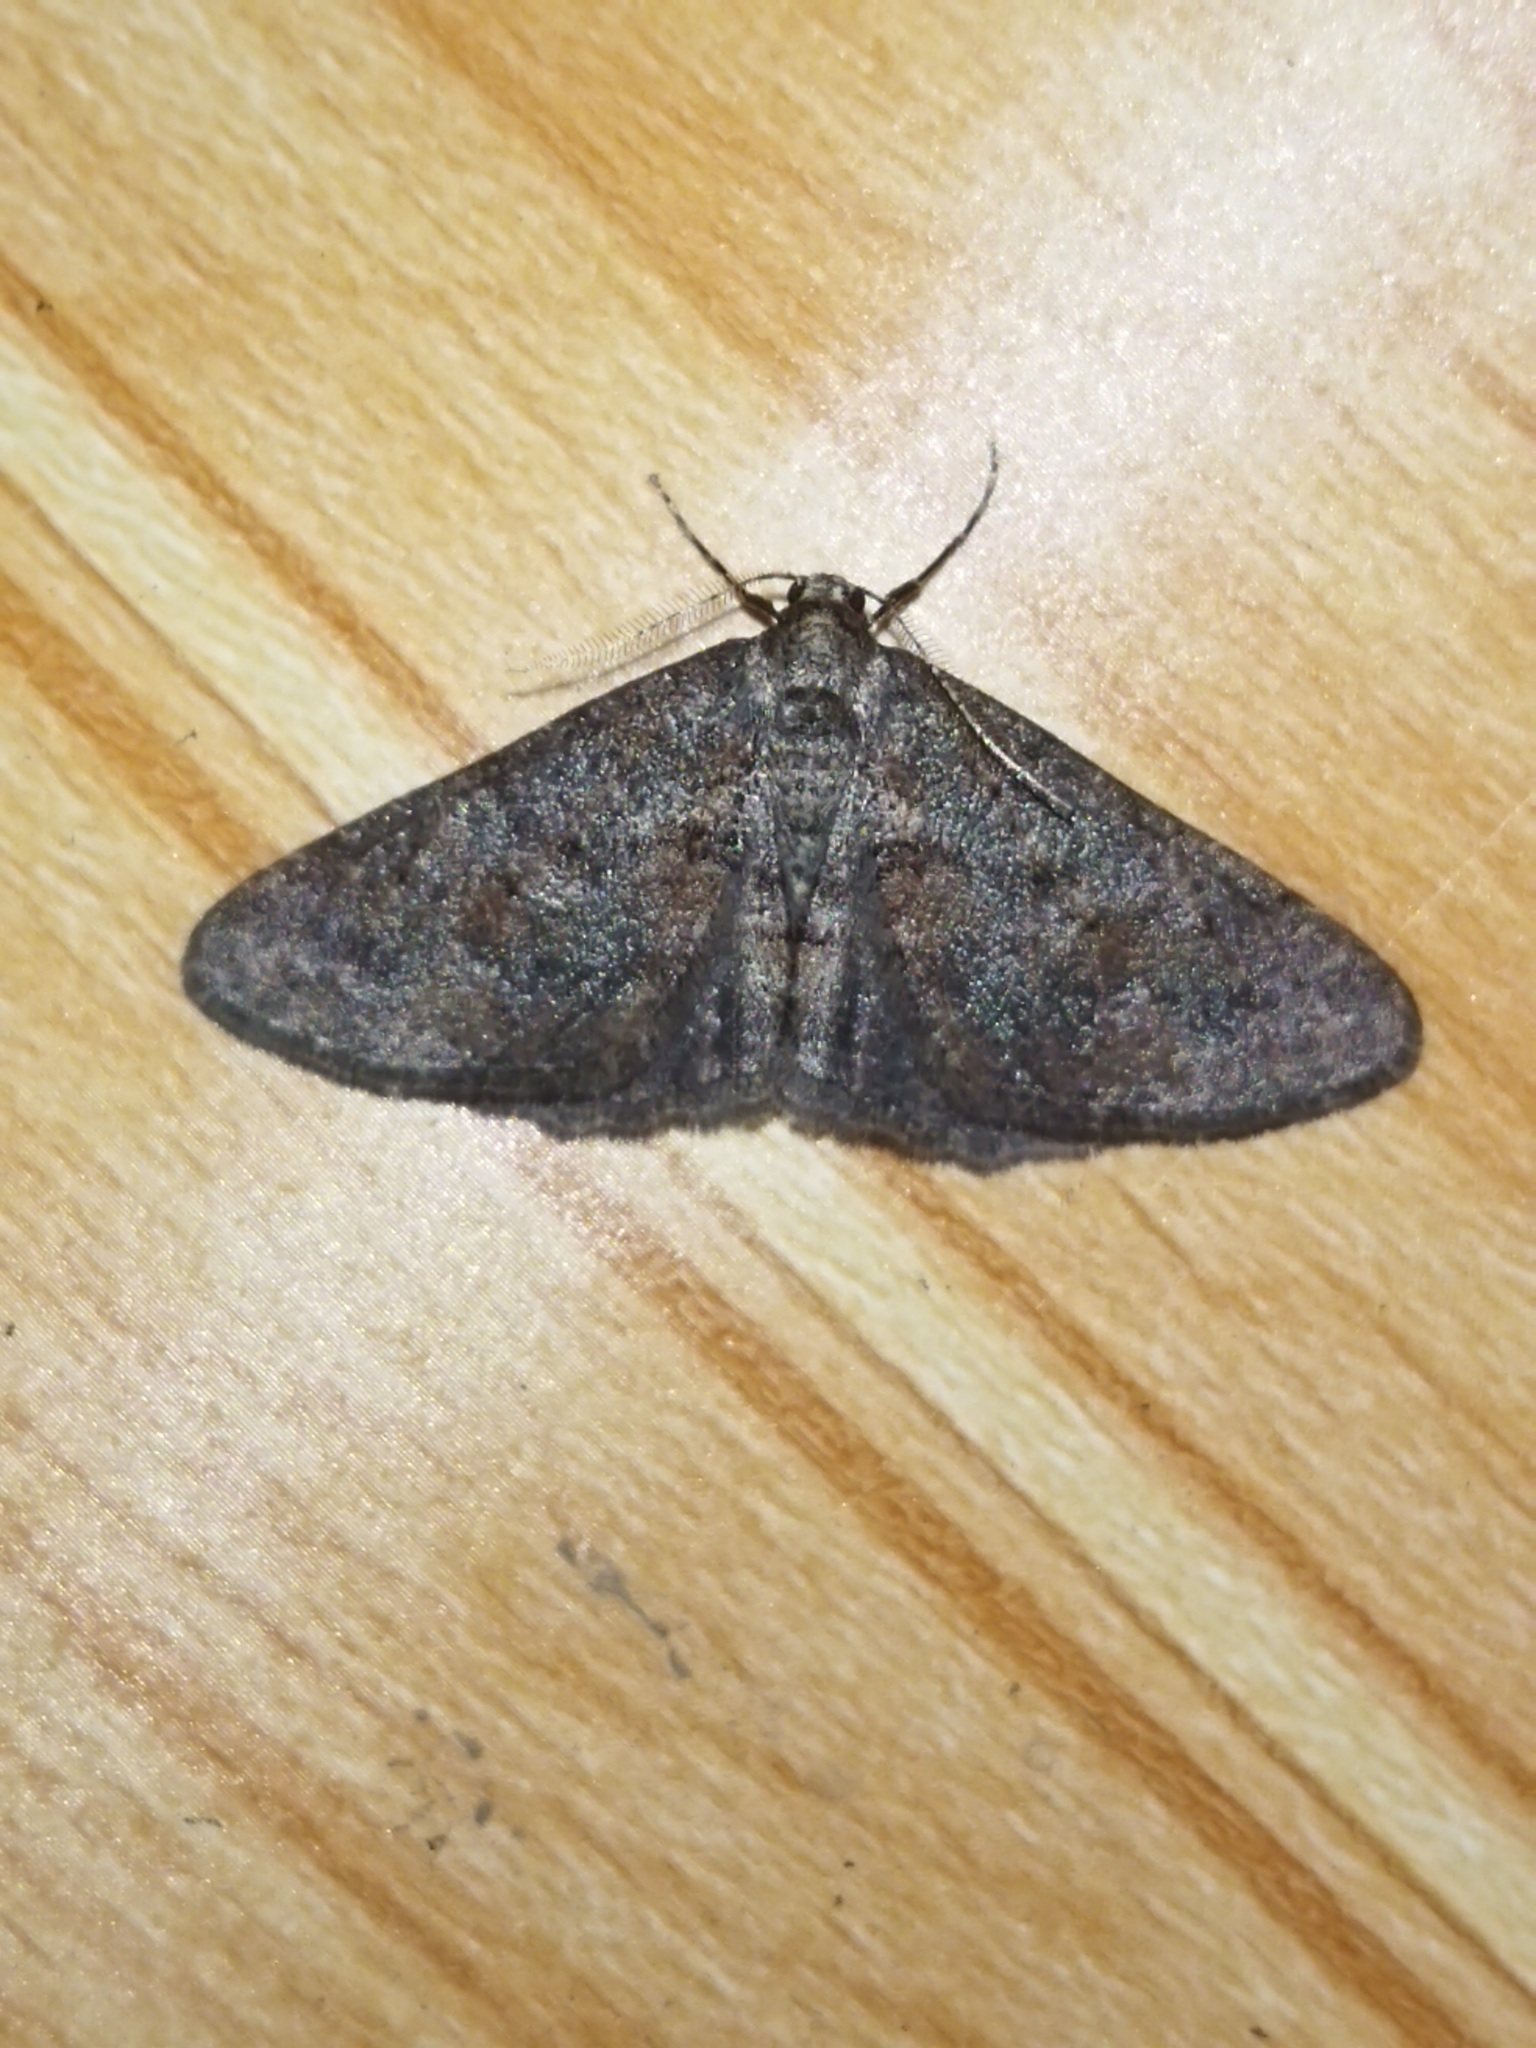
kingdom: Animalia
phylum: Arthropoda
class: Insecta
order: Lepidoptera
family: Geometridae
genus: Agriopis
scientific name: Agriopis bajaria
